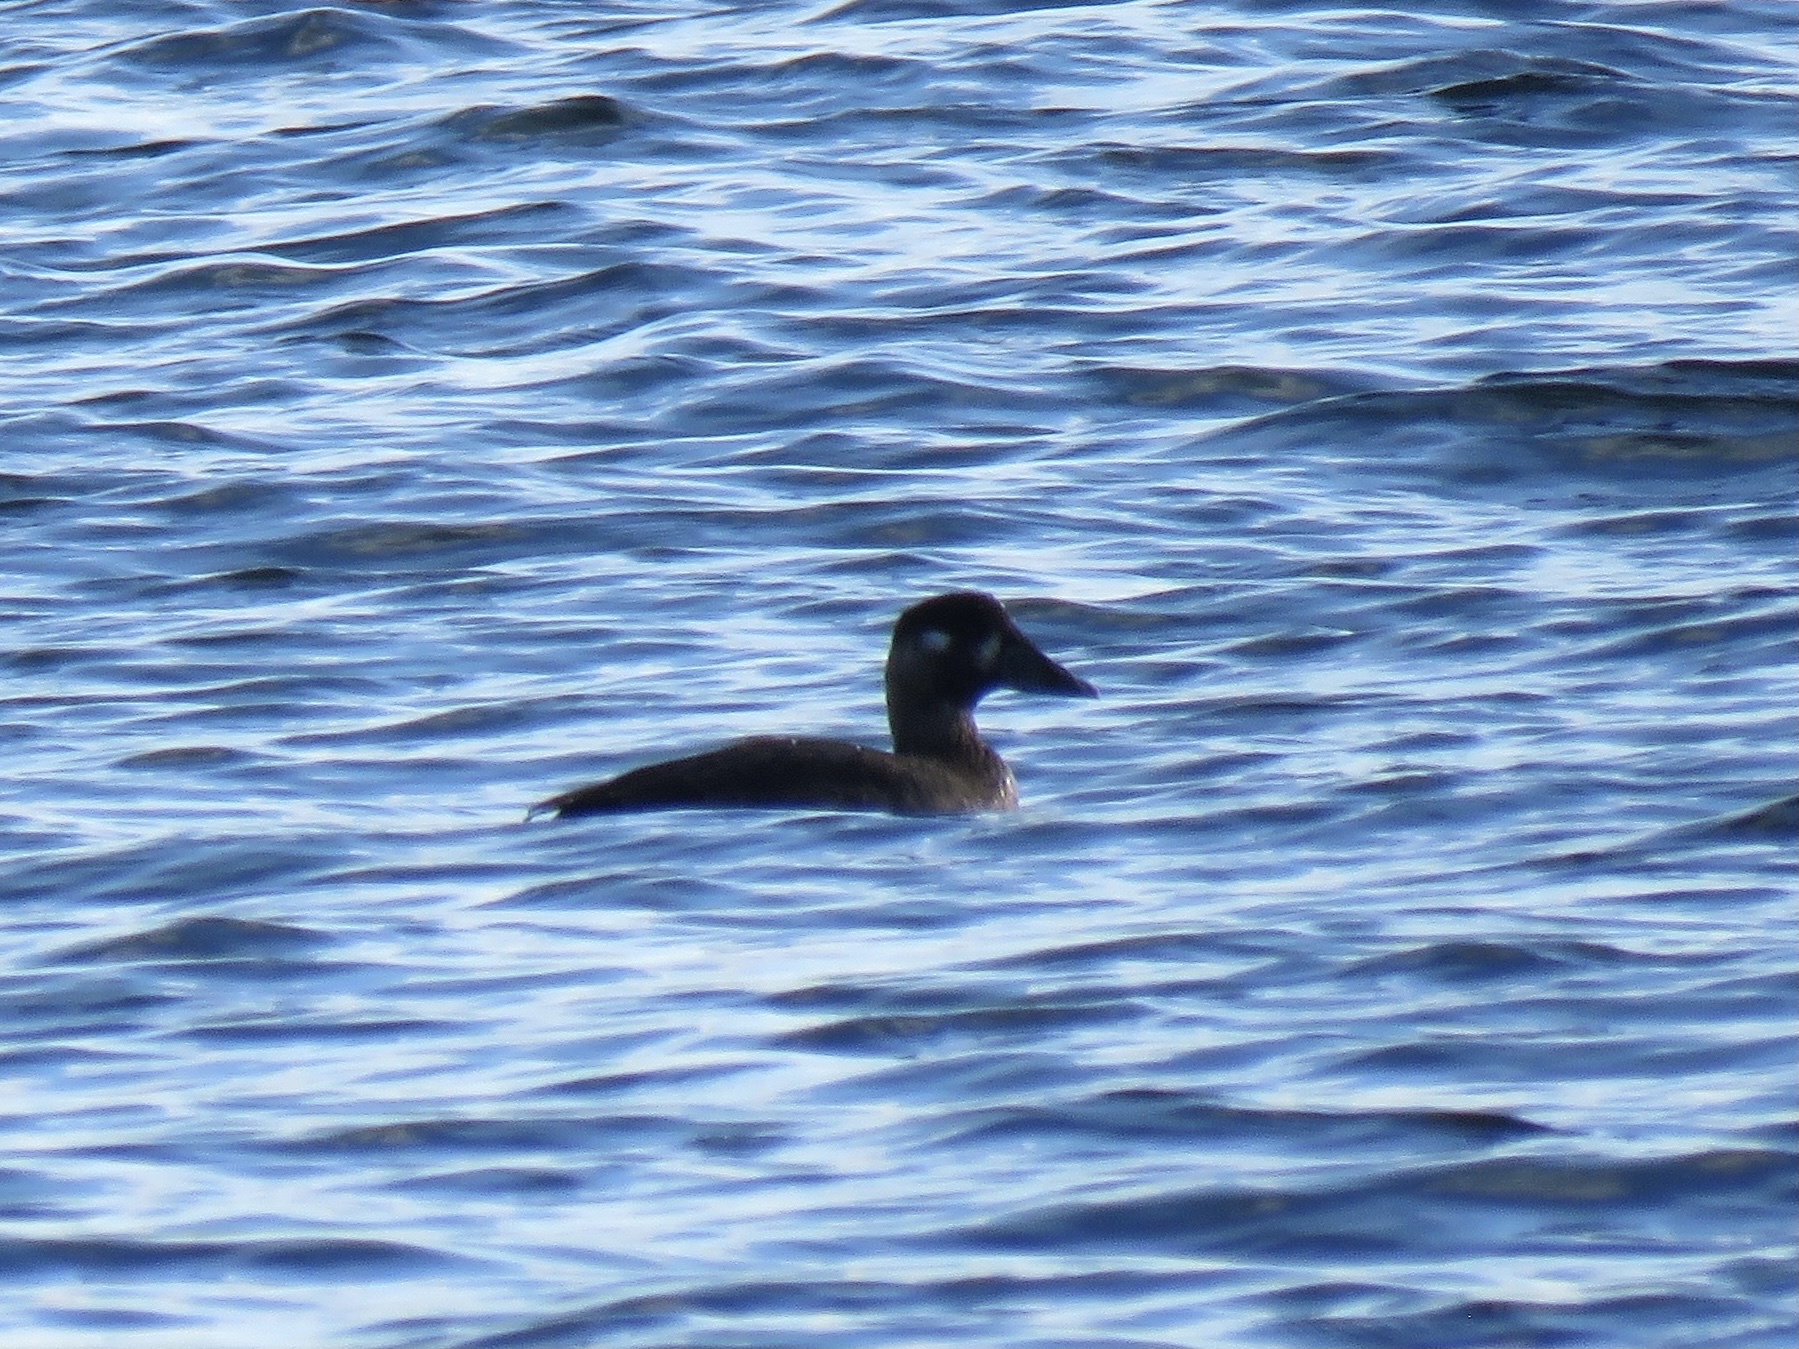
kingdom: Animalia
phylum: Chordata
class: Aves
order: Anseriformes
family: Anatidae
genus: Melanitta
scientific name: Melanitta perspicillata
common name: Surf scoter
